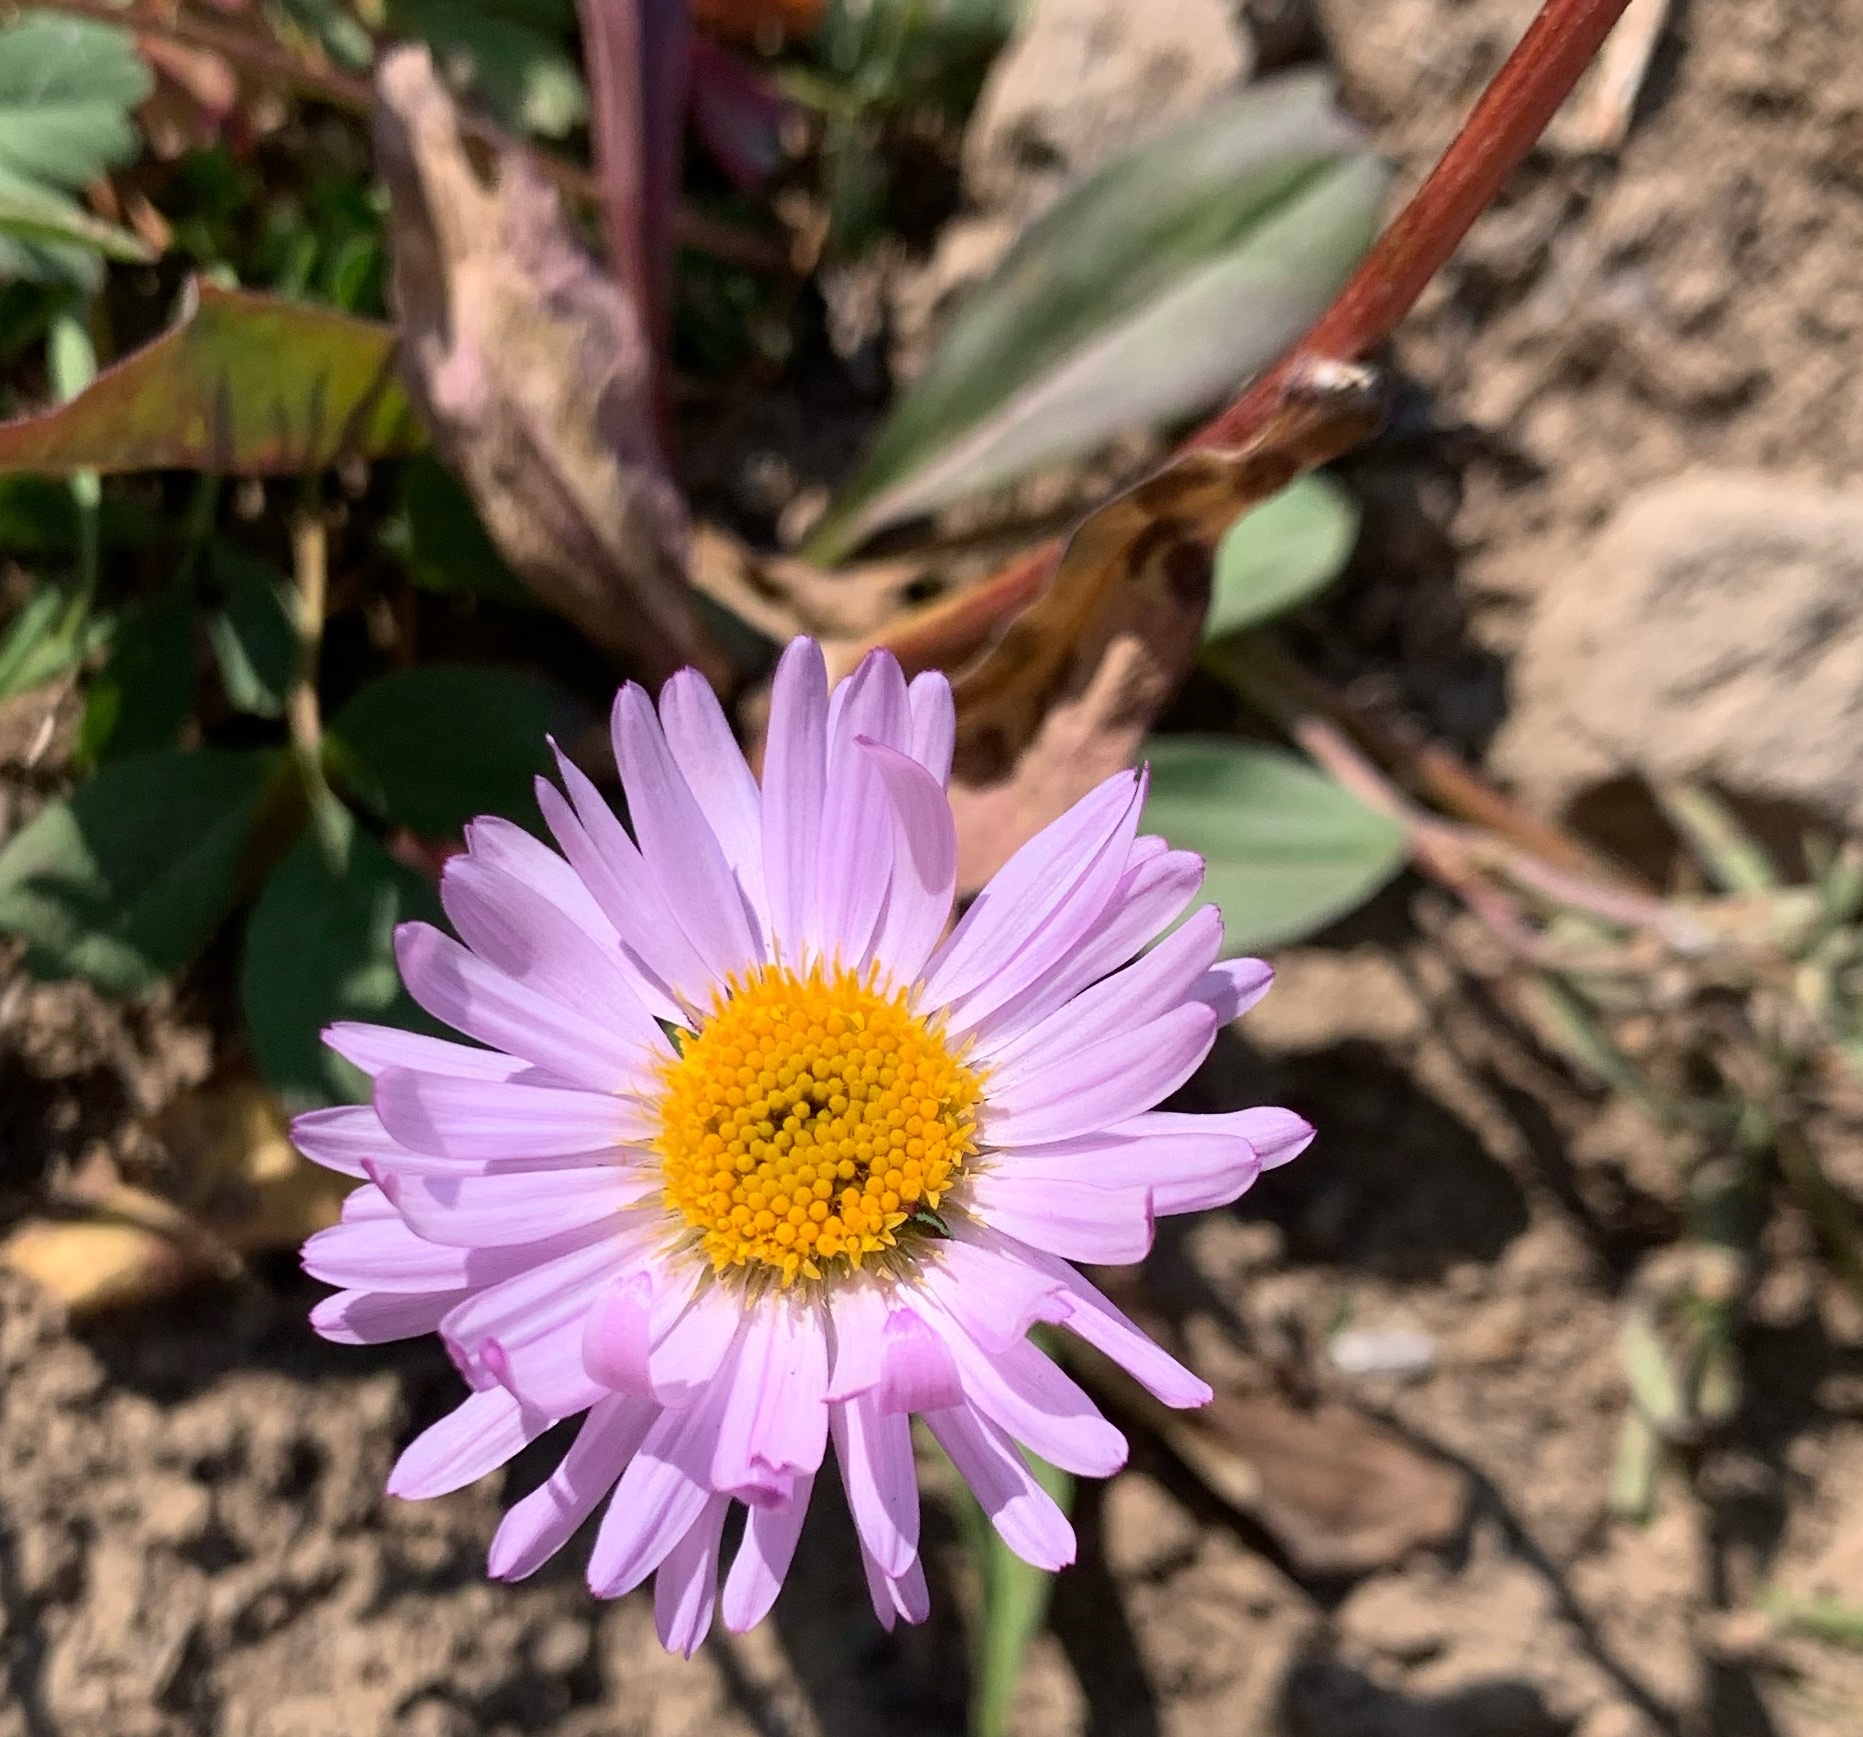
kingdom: Plantae
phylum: Tracheophyta
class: Magnoliopsida
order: Asterales
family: Asteraceae
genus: Erigeron
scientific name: Erigeron glacialis
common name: Subalpine fleabane
